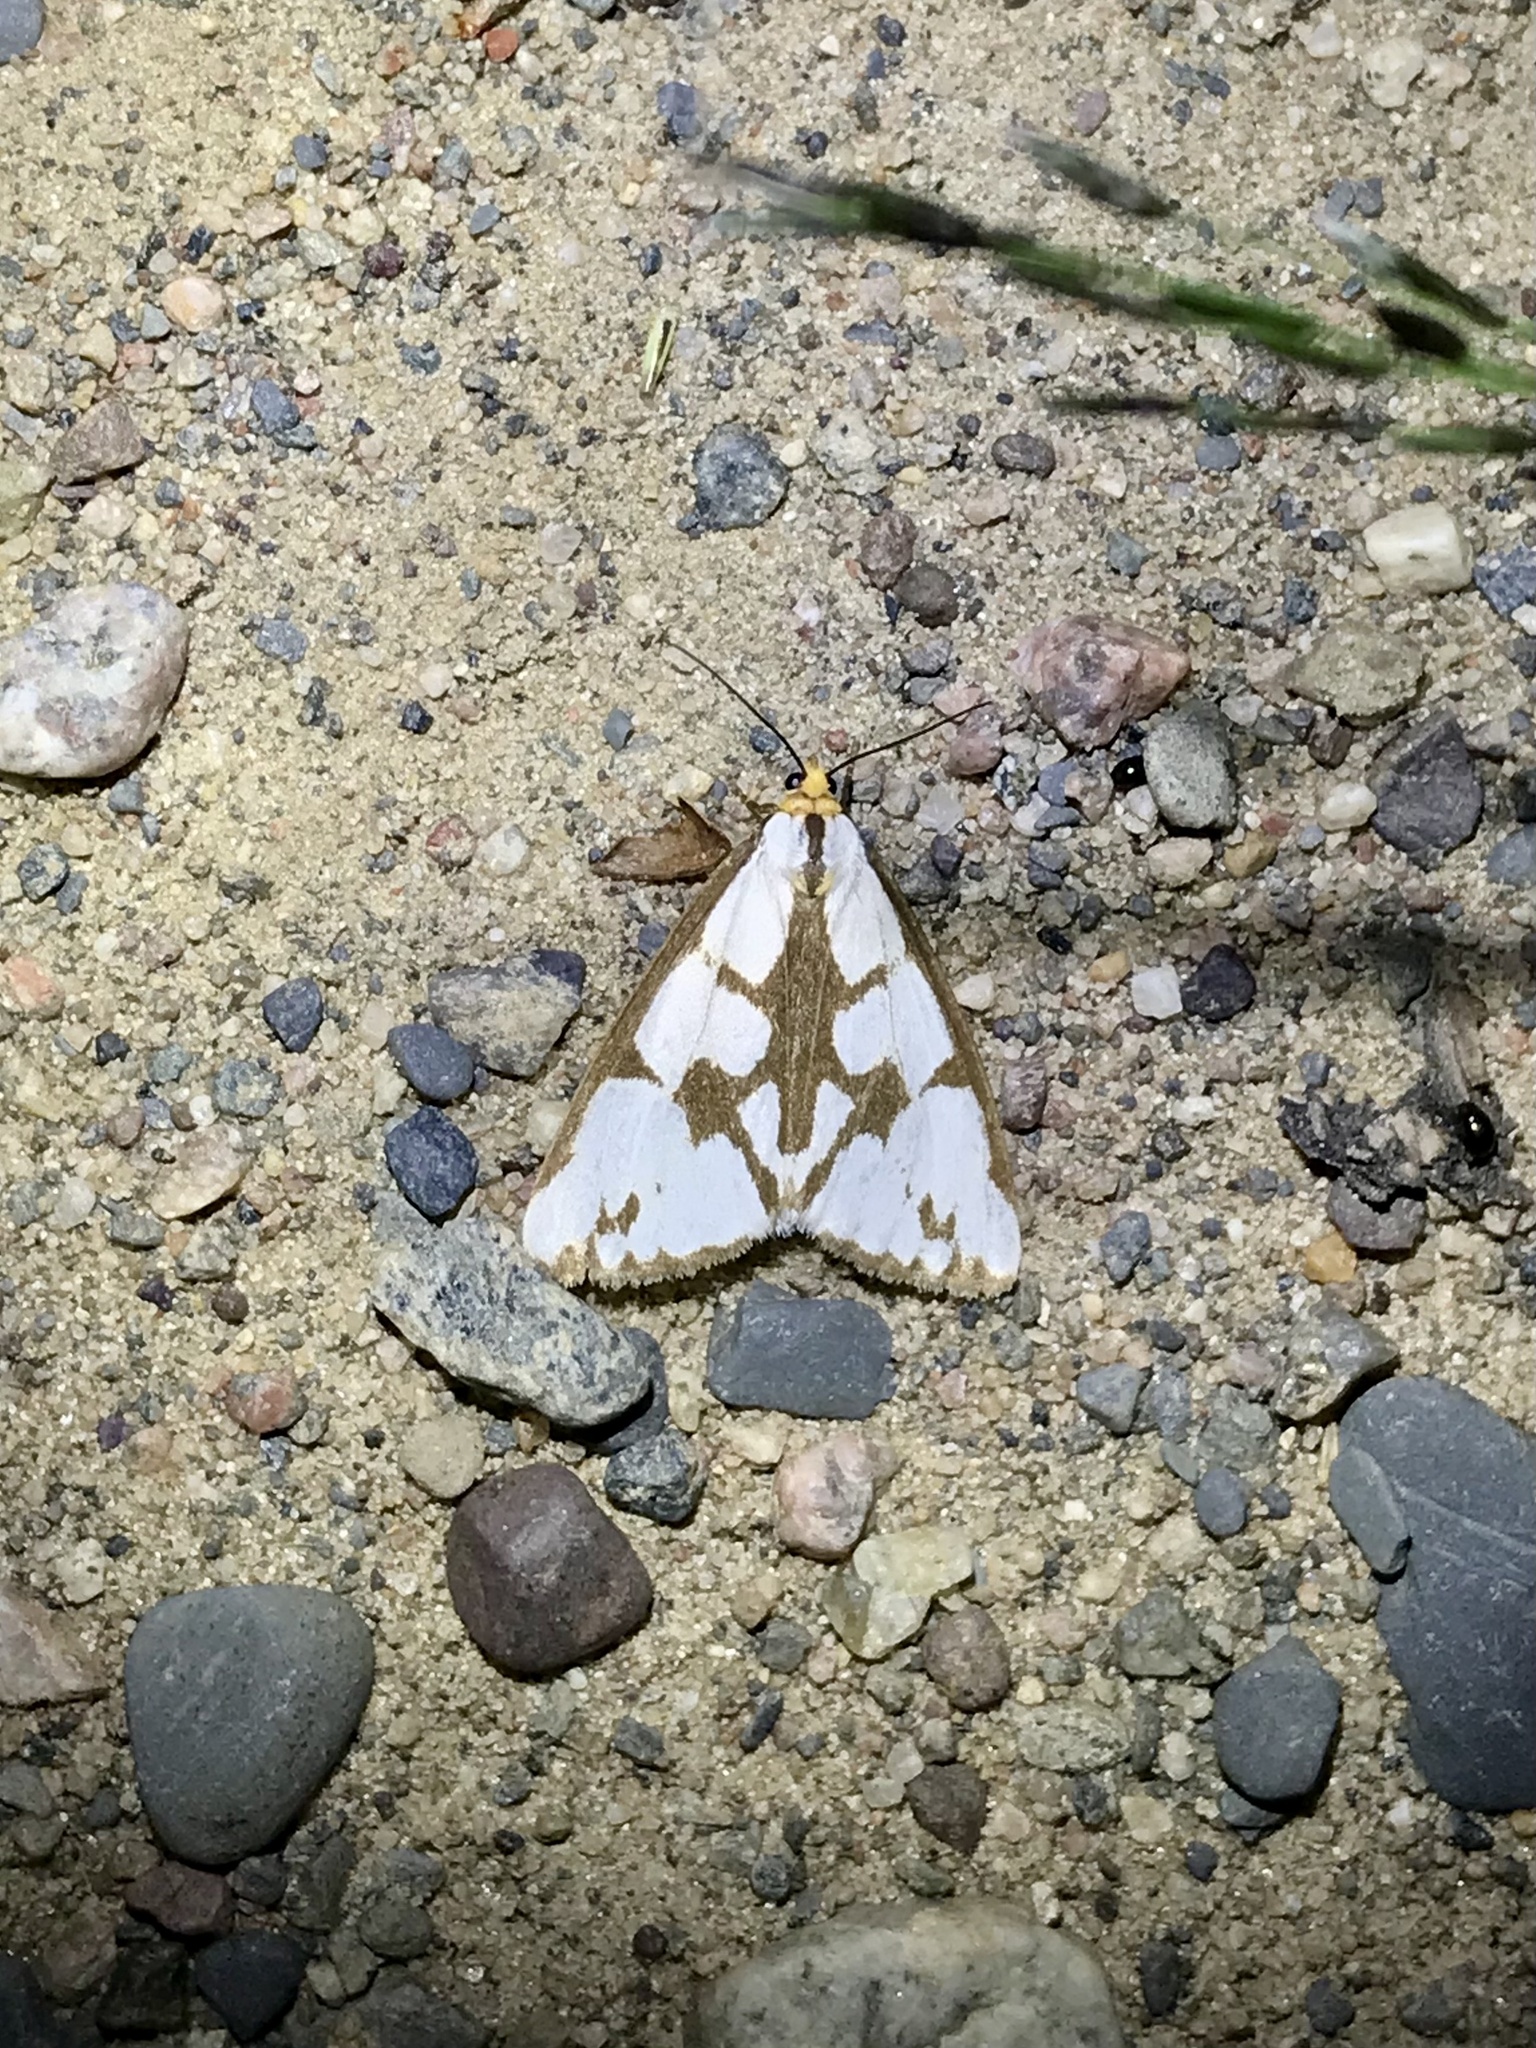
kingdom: Animalia
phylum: Arthropoda
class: Insecta
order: Lepidoptera
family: Erebidae
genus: Haploa
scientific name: Haploa confusa
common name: Confused haploa moth
